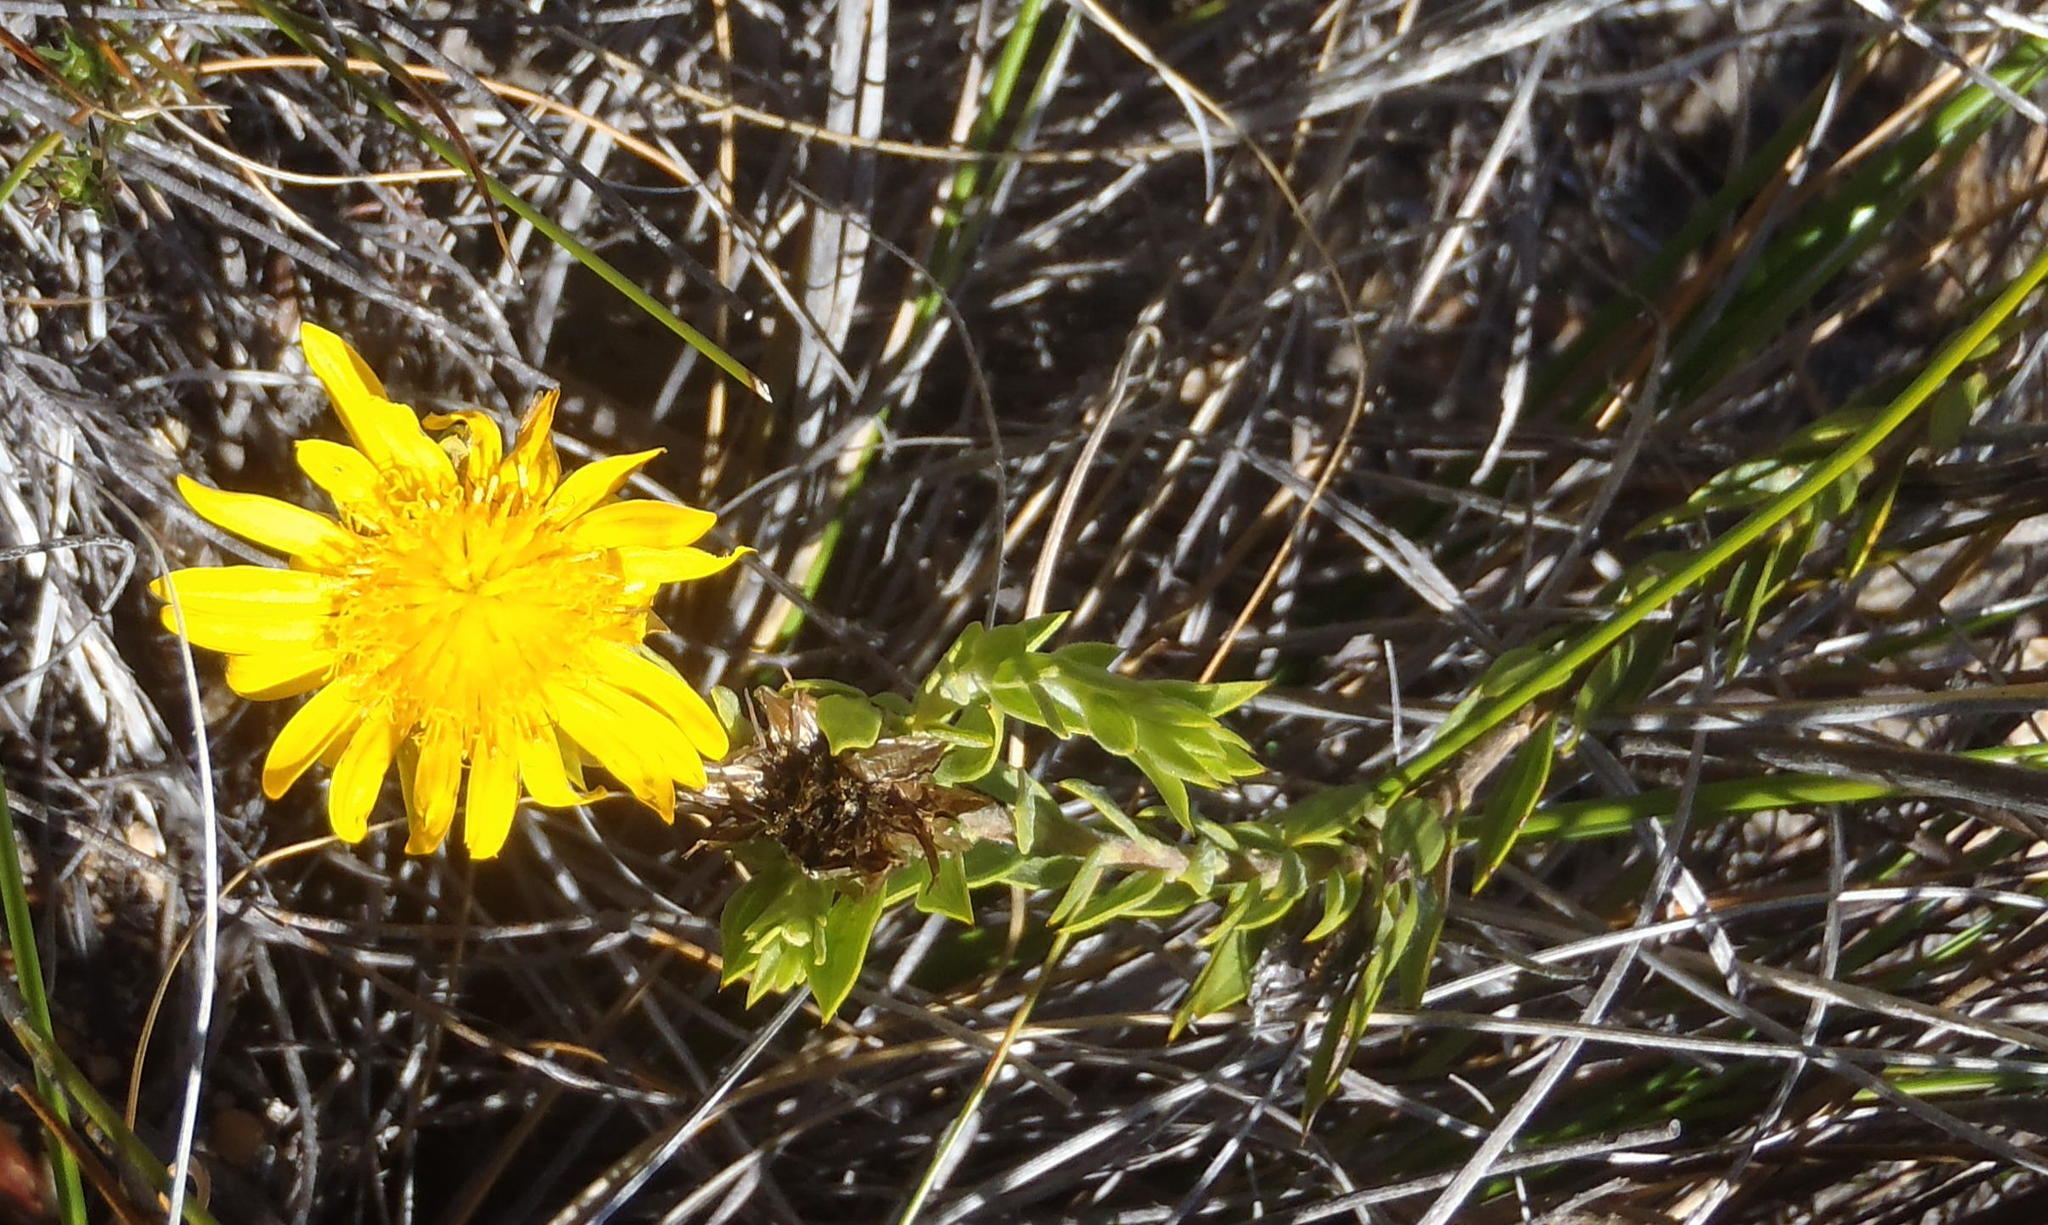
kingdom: Plantae
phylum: Tracheophyta
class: Magnoliopsida
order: Asterales
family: Asteraceae
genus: Oedera
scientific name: Oedera calycina
